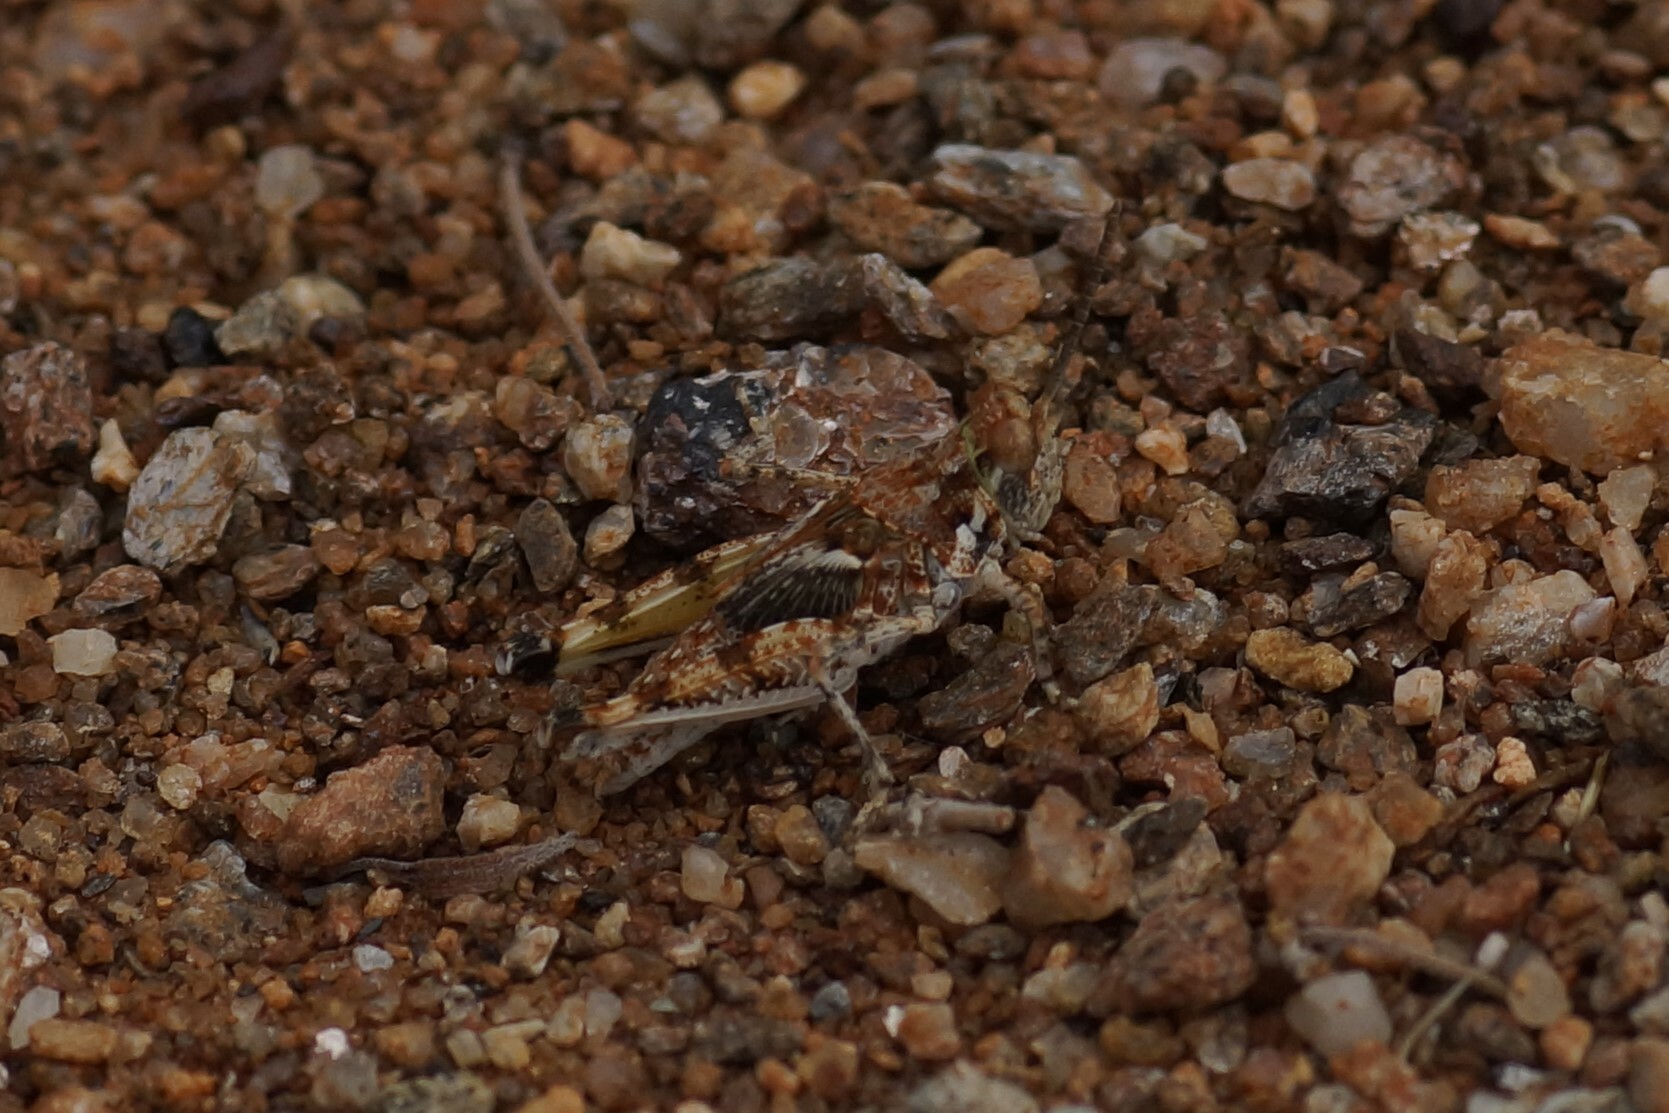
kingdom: Animalia
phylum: Arthropoda
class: Insecta
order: Orthoptera
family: Acrididae
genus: Urnisa
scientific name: Urnisa guttulosa
